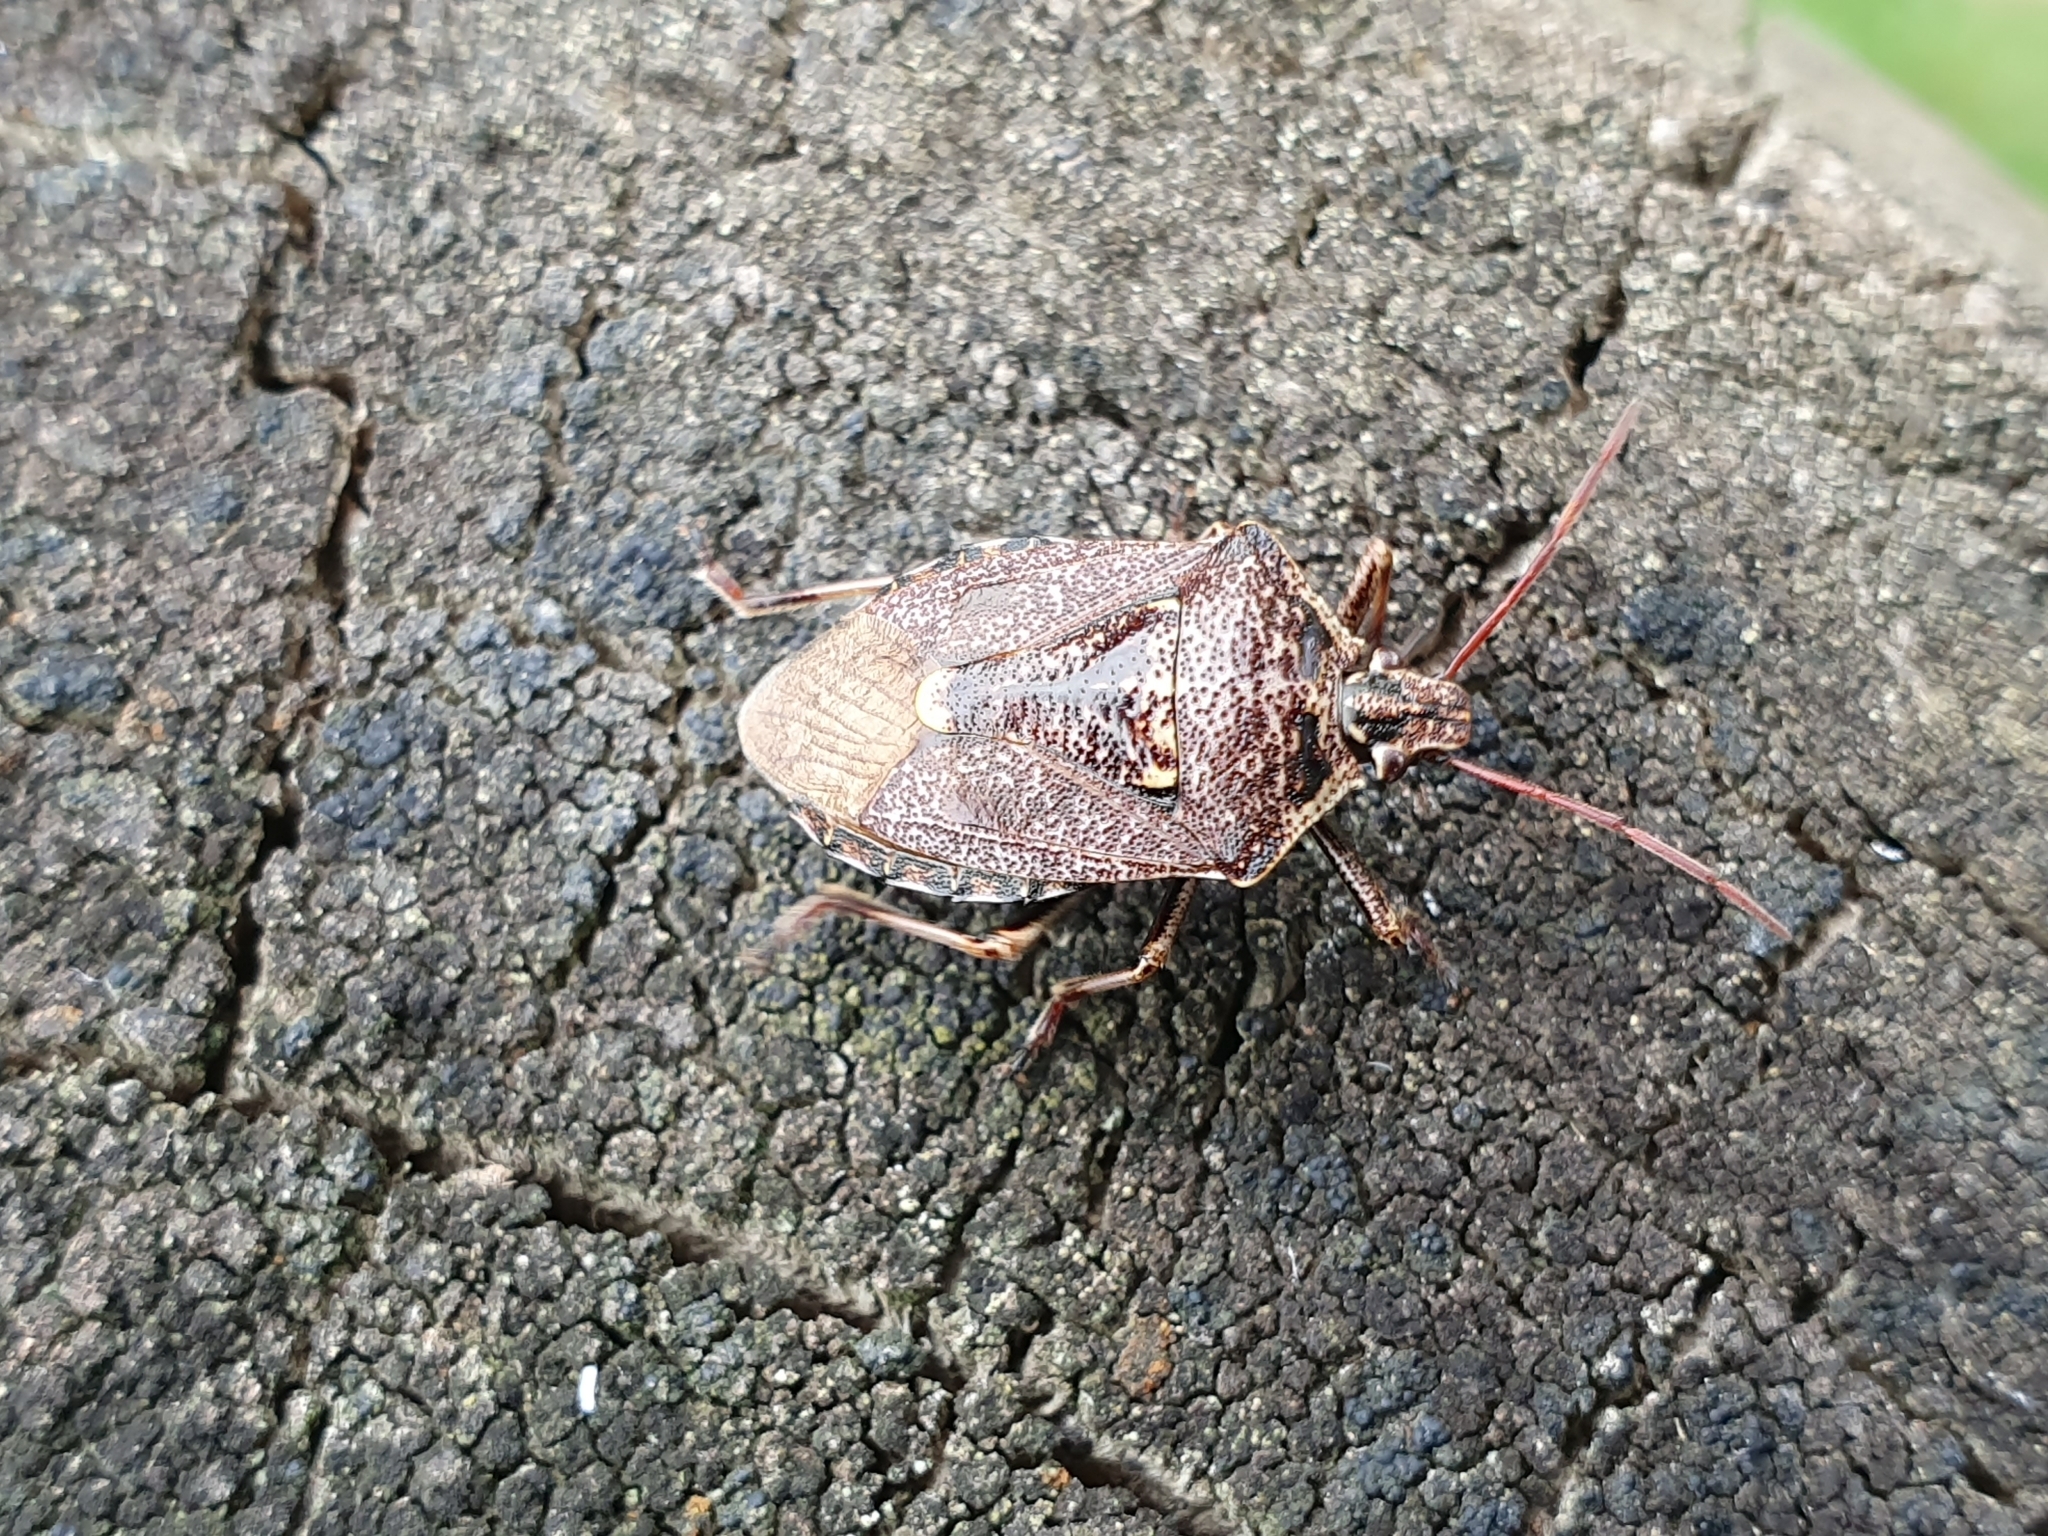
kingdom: Animalia
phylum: Arthropoda
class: Insecta
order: Hemiptera
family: Pentatomidae
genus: Cermatulus
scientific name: Cermatulus nasalis
